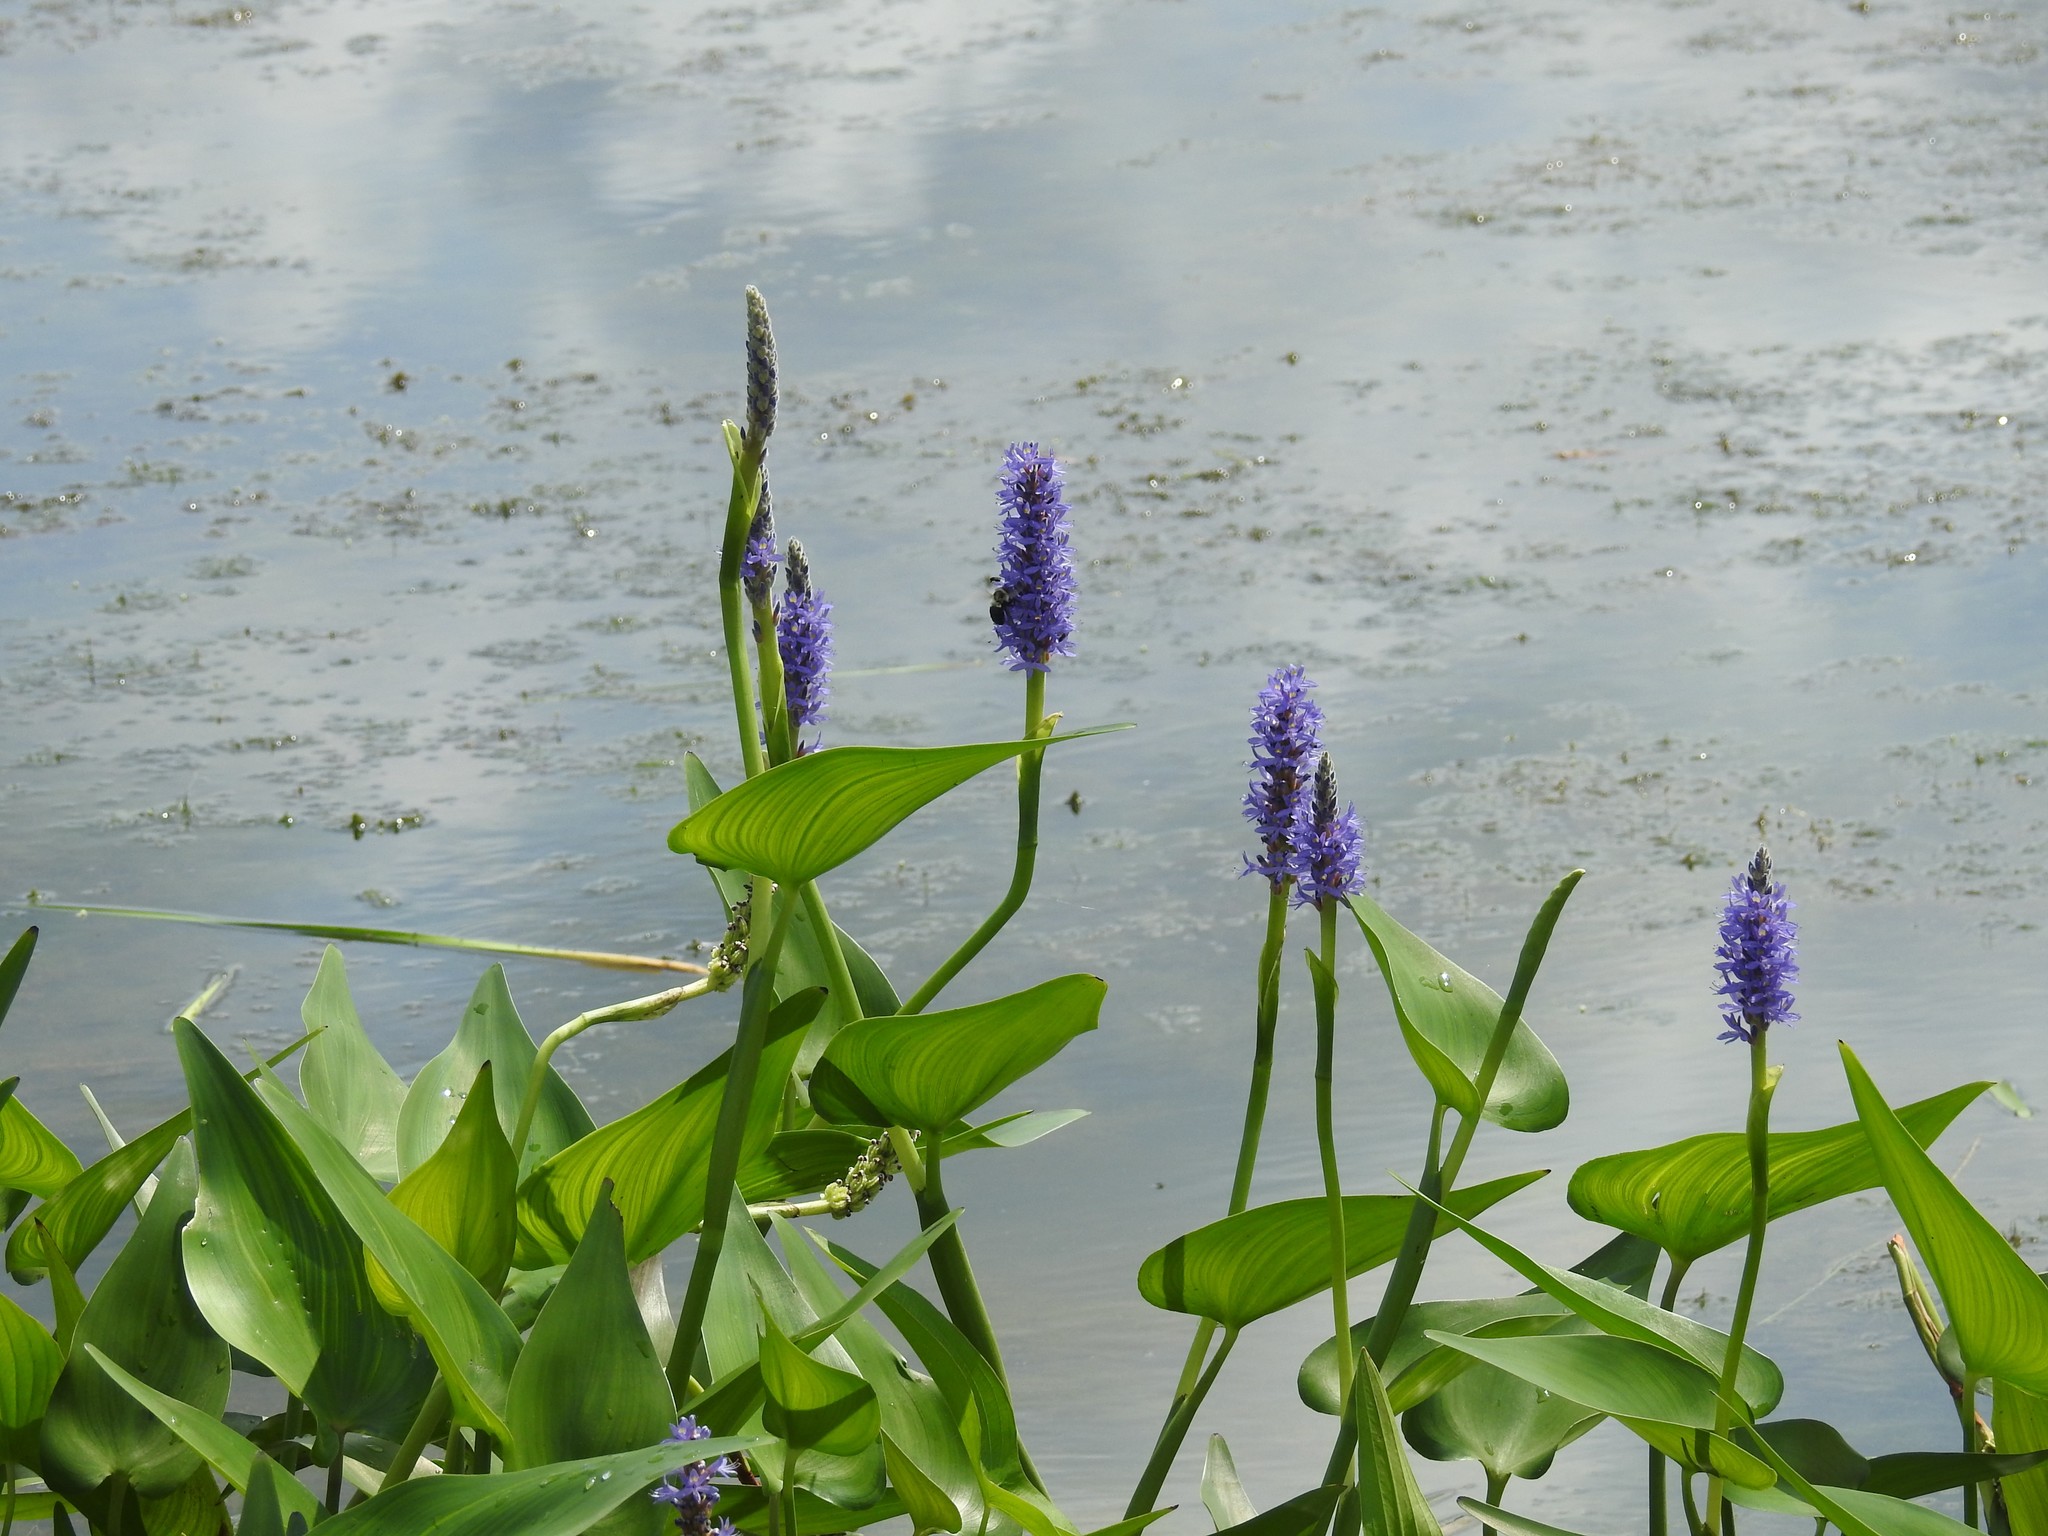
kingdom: Plantae
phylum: Tracheophyta
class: Liliopsida
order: Commelinales
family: Pontederiaceae
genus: Pontederia
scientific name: Pontederia cordata
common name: Pickerelweed
